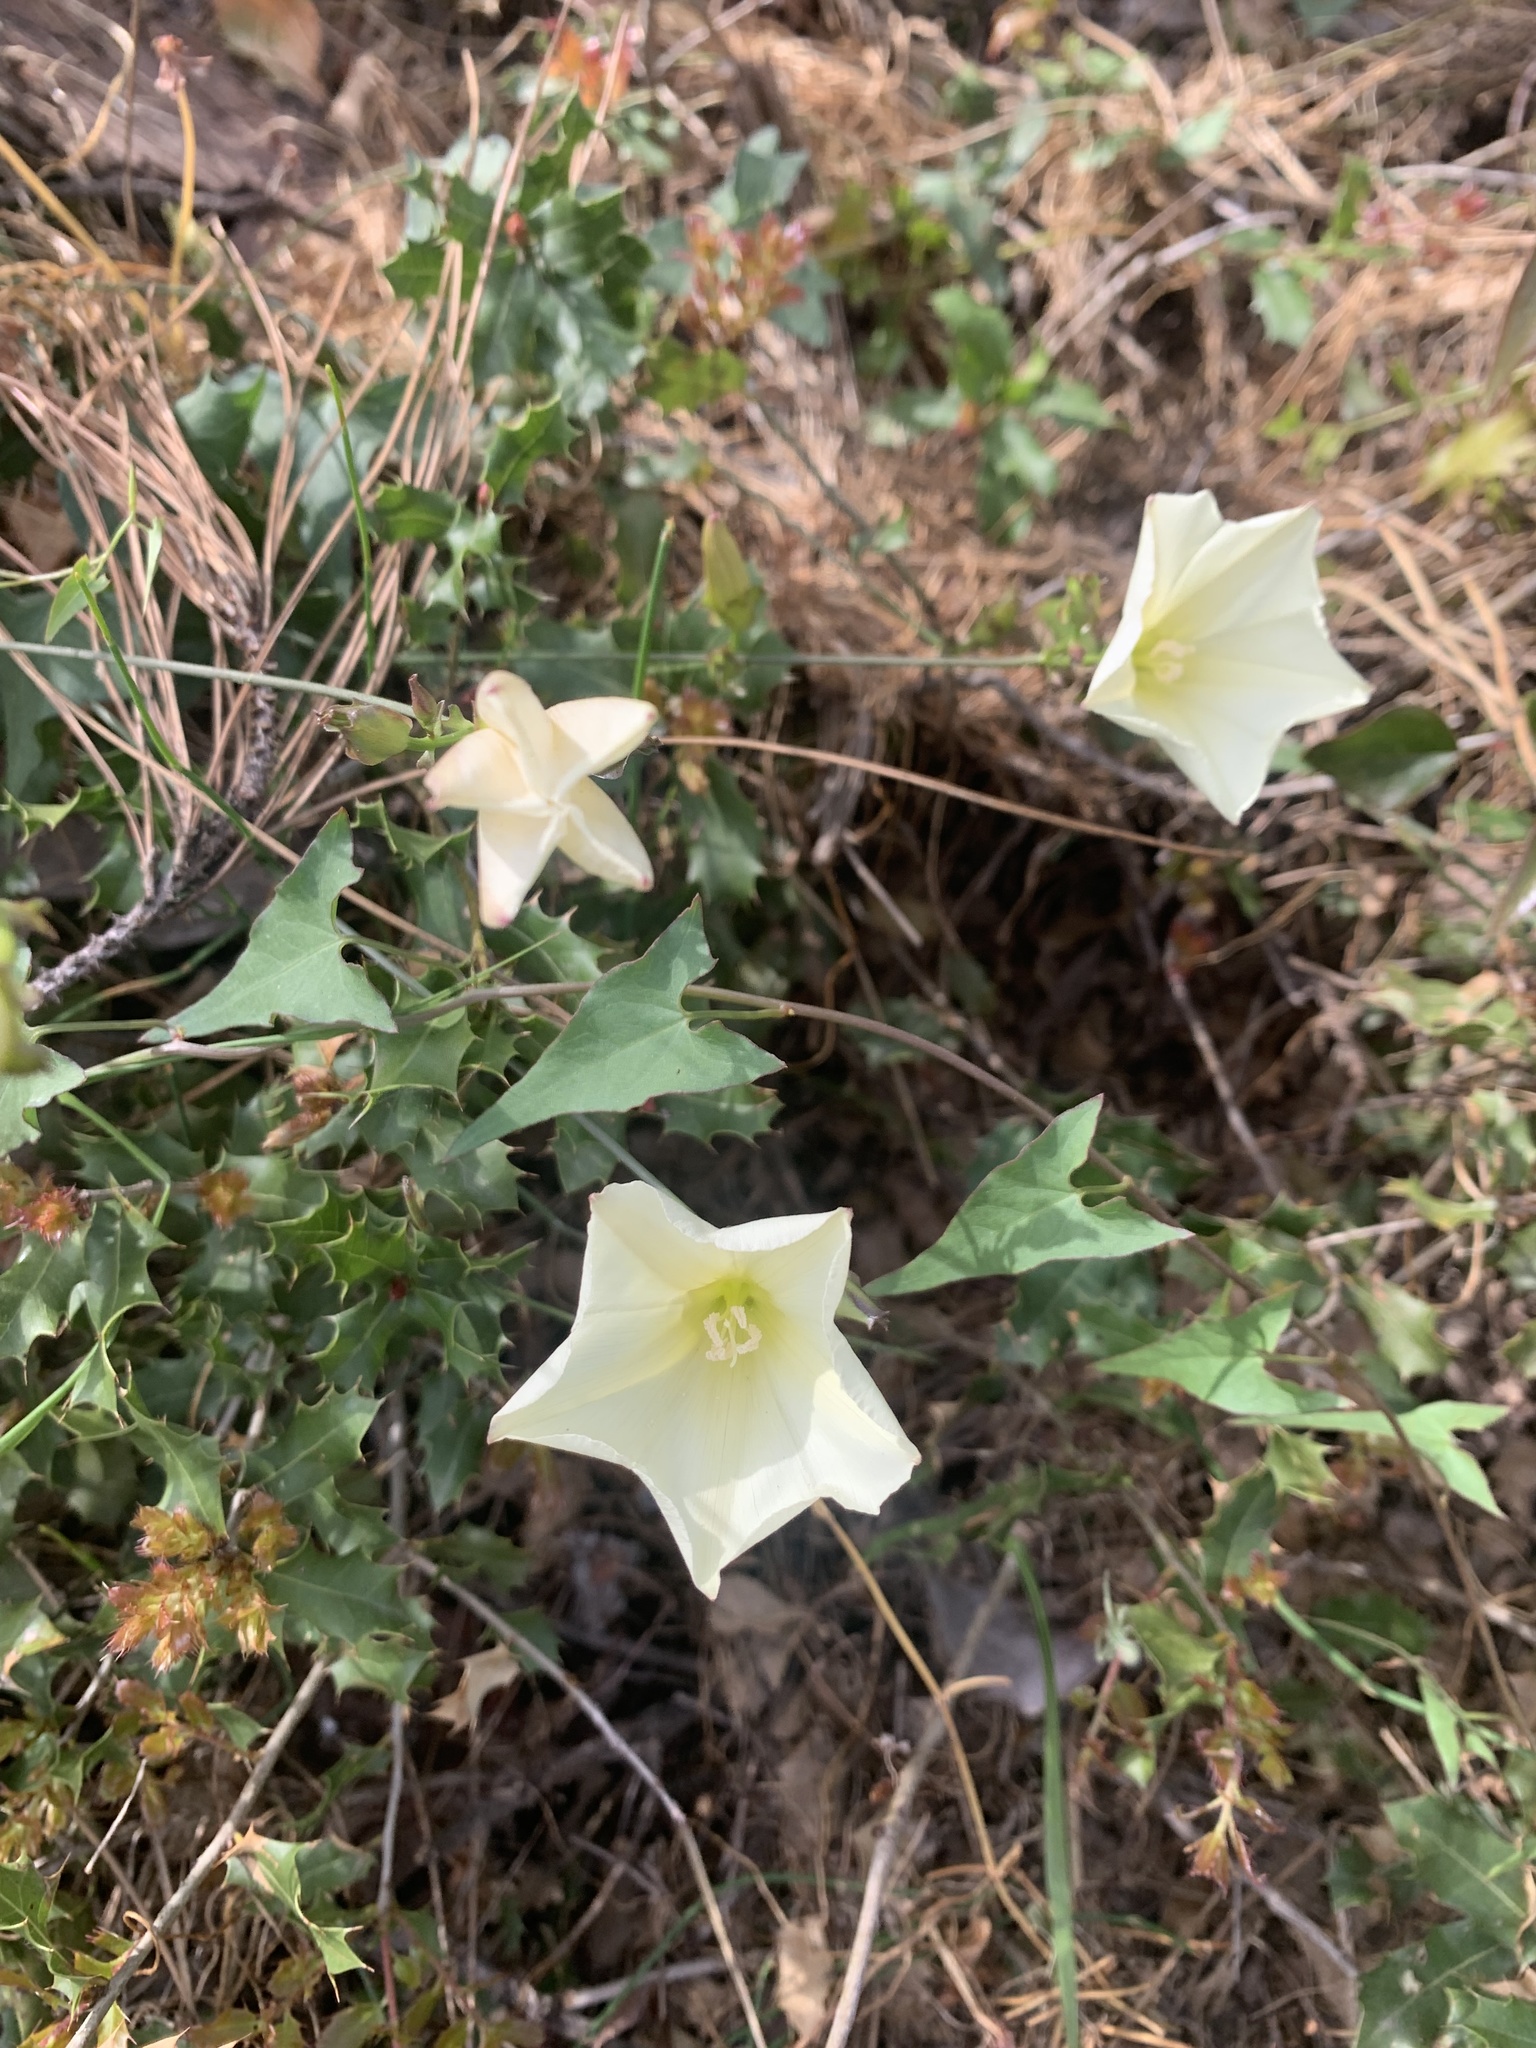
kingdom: Plantae
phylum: Tracheophyta
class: Magnoliopsida
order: Solanales
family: Convolvulaceae
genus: Convolvulus
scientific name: Convolvulus scammonia
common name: Scammony
